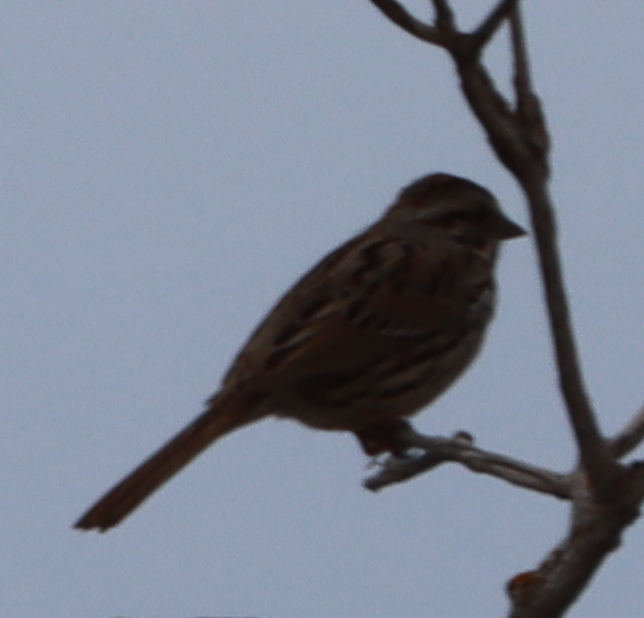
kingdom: Animalia
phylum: Chordata
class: Aves
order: Passeriformes
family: Passerellidae
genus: Melospiza
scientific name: Melospiza melodia
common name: Song sparrow
